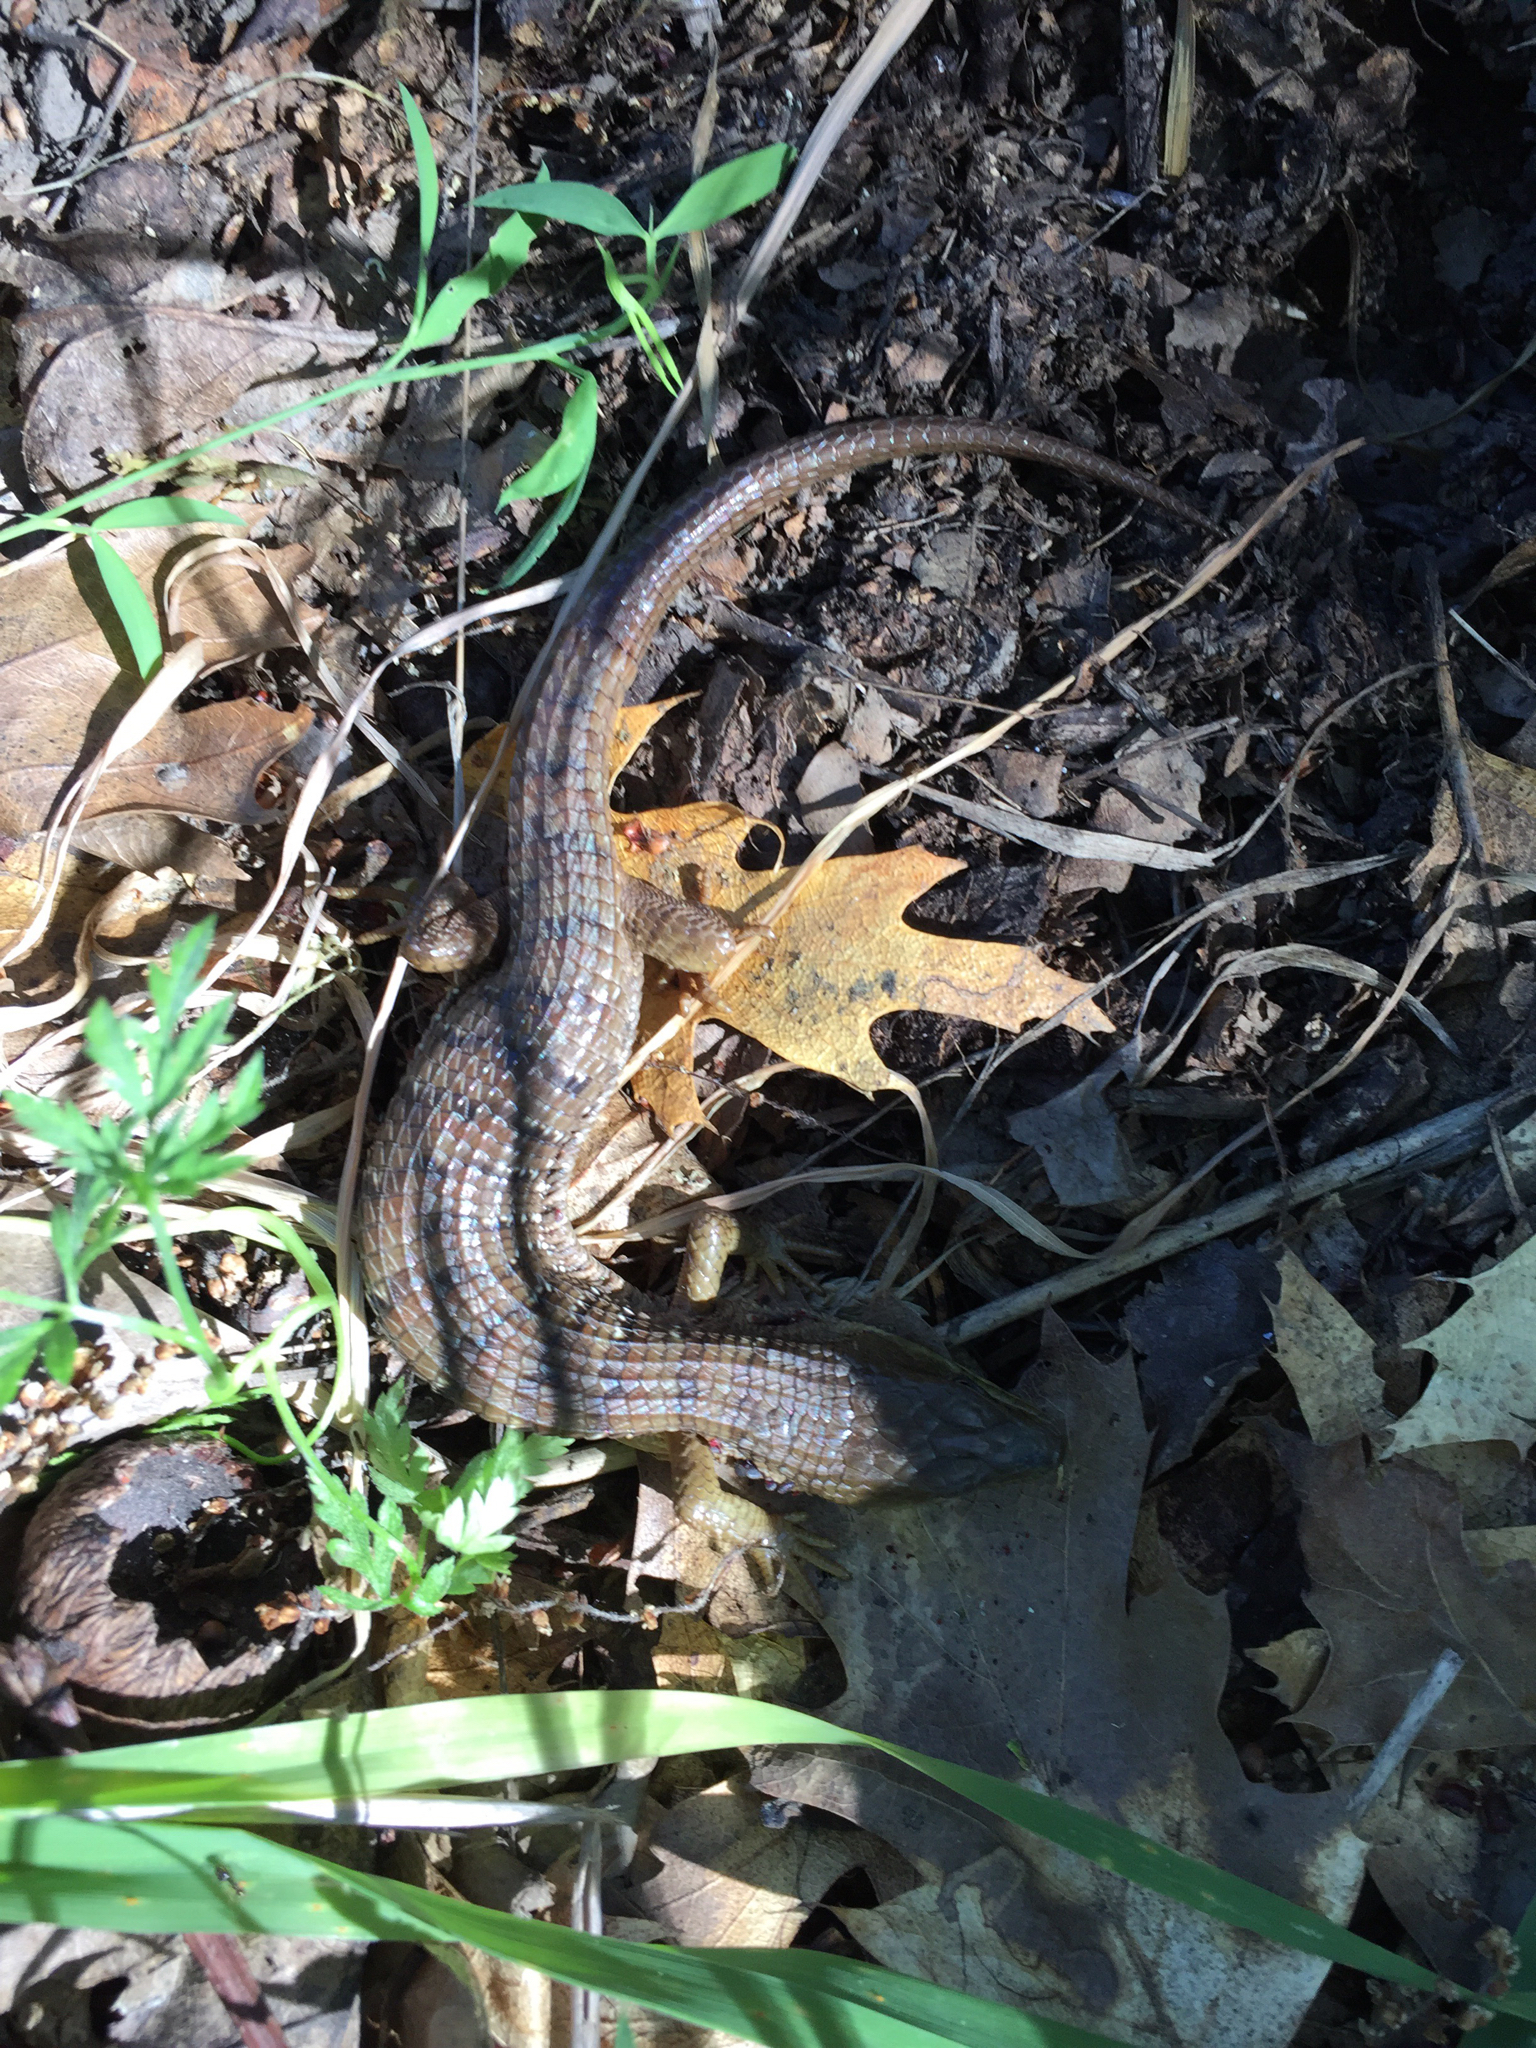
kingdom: Animalia
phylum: Chordata
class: Squamata
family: Anguidae
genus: Elgaria
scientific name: Elgaria multicarinata
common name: Southern alligator lizard
